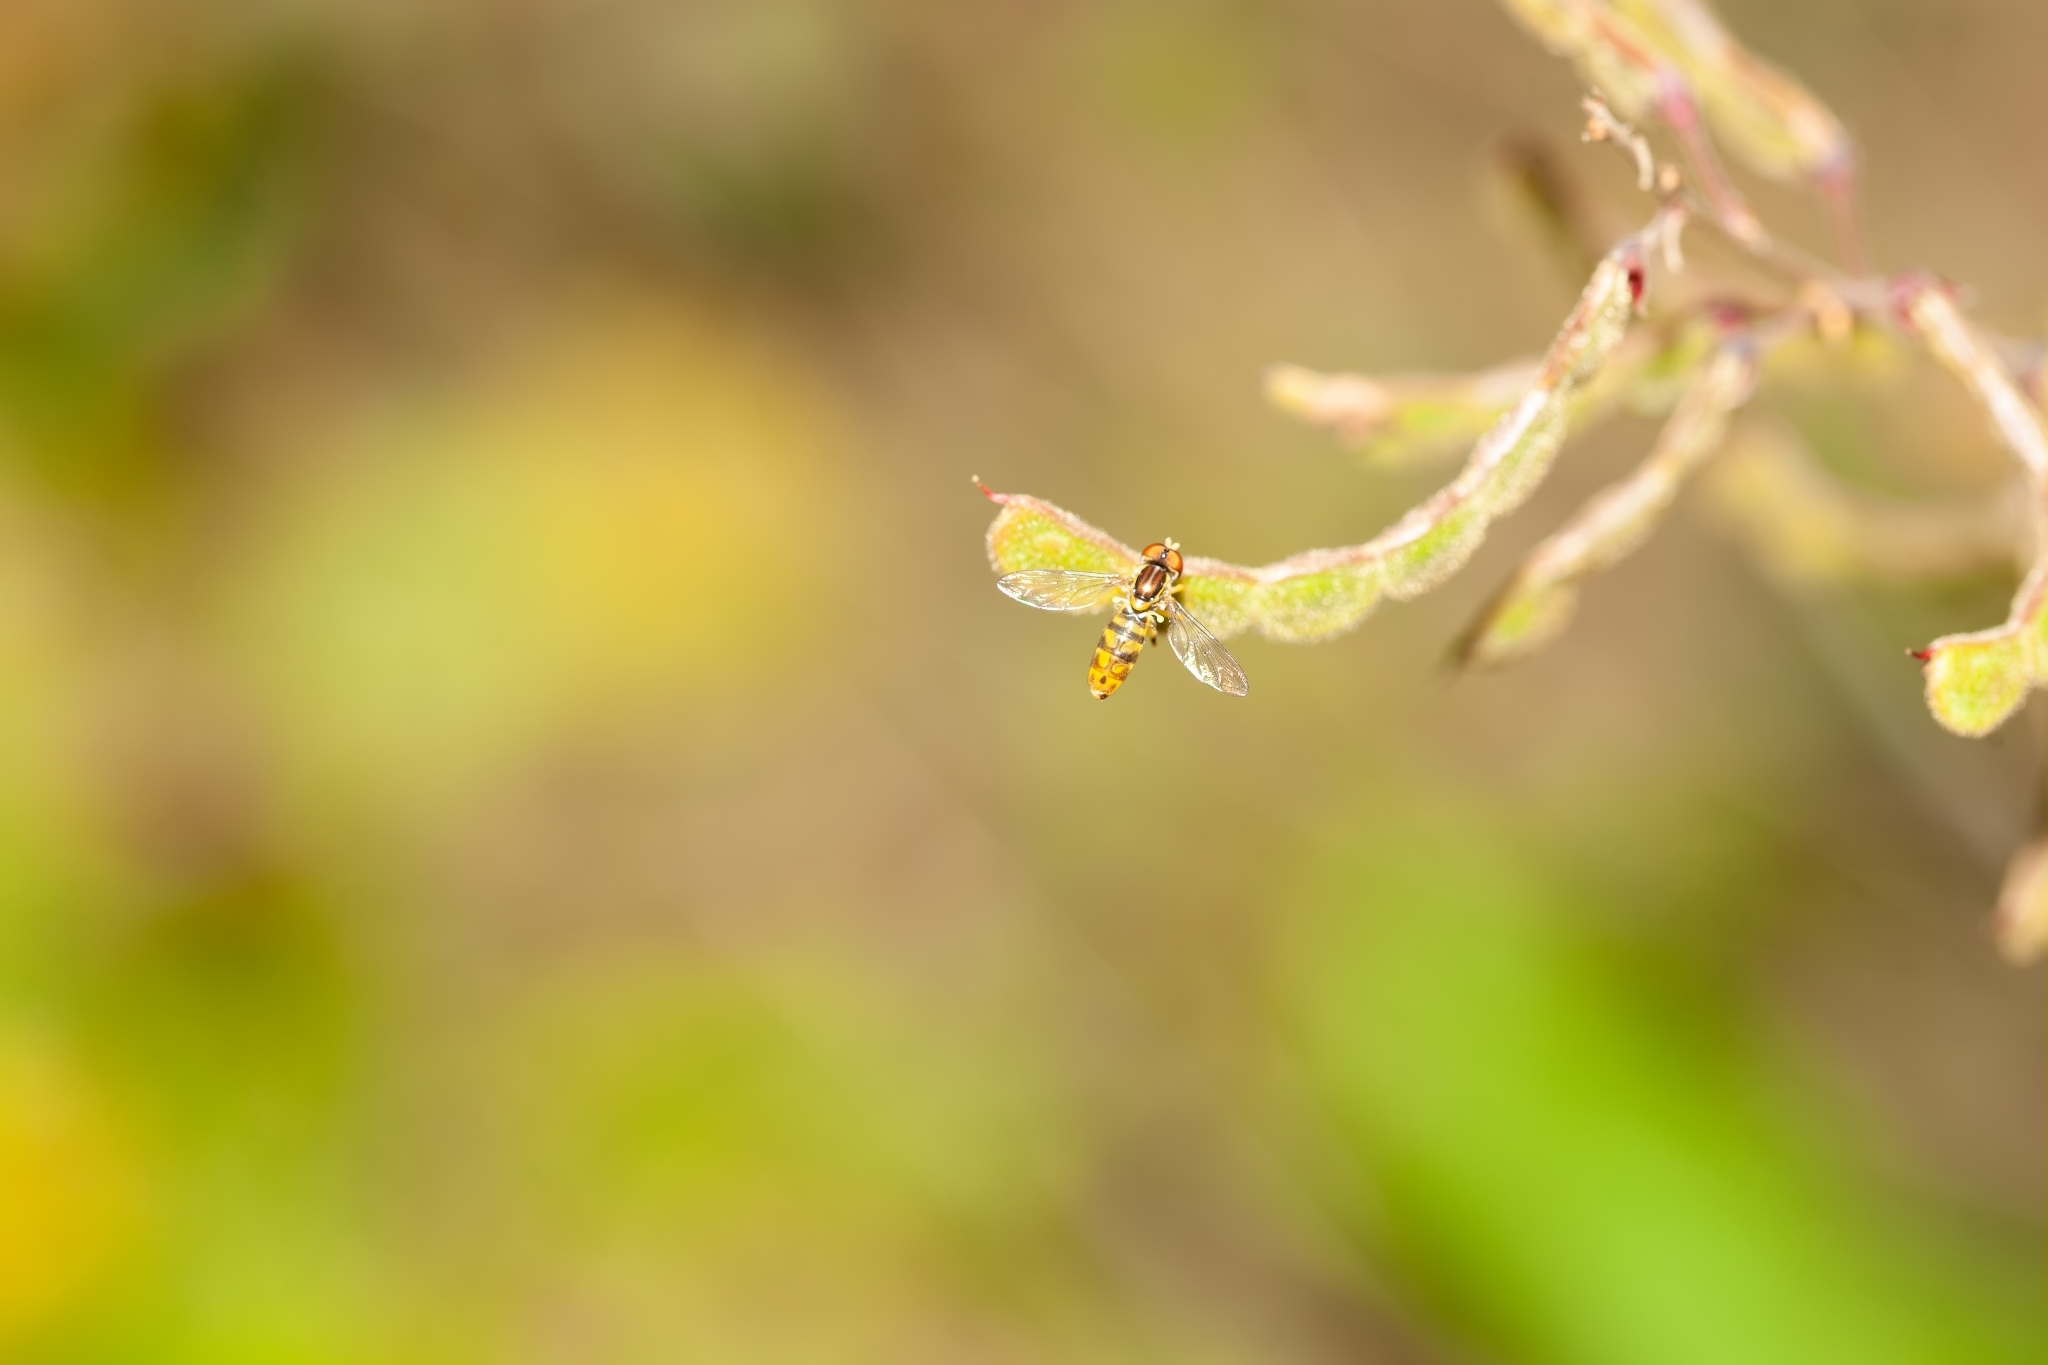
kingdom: Animalia
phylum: Arthropoda
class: Insecta
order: Diptera
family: Syrphidae
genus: Toxomerus
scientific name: Toxomerus floralis
